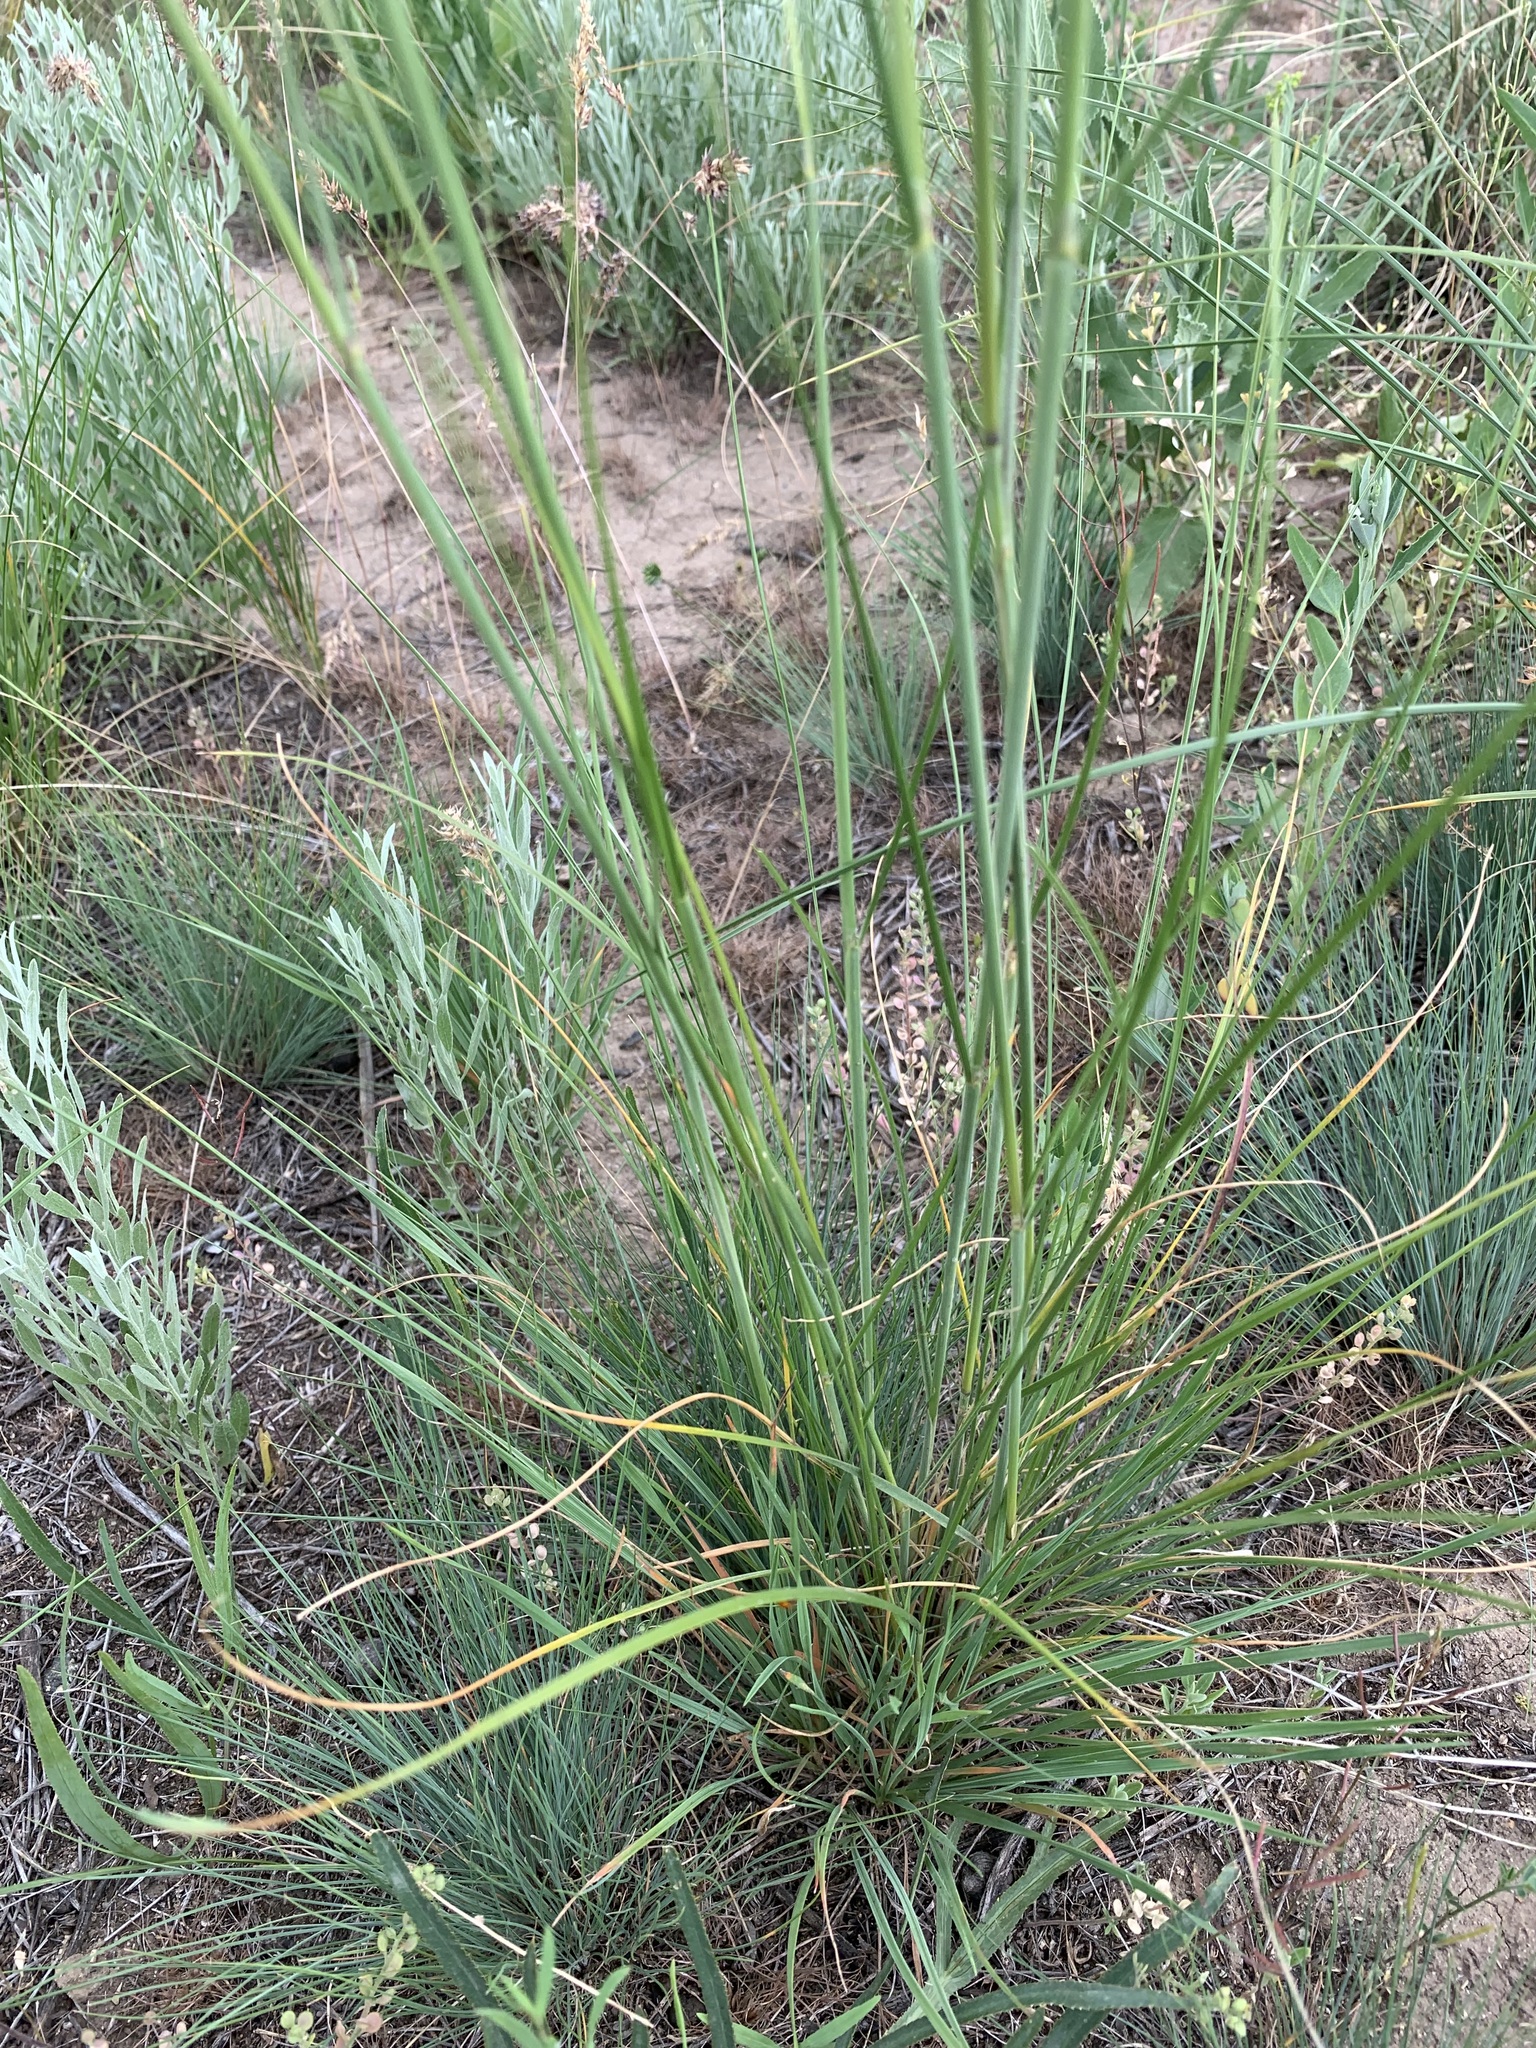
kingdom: Plantae
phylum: Tracheophyta
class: Liliopsida
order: Poales
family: Poaceae
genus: Stipa
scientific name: Stipa capillata
